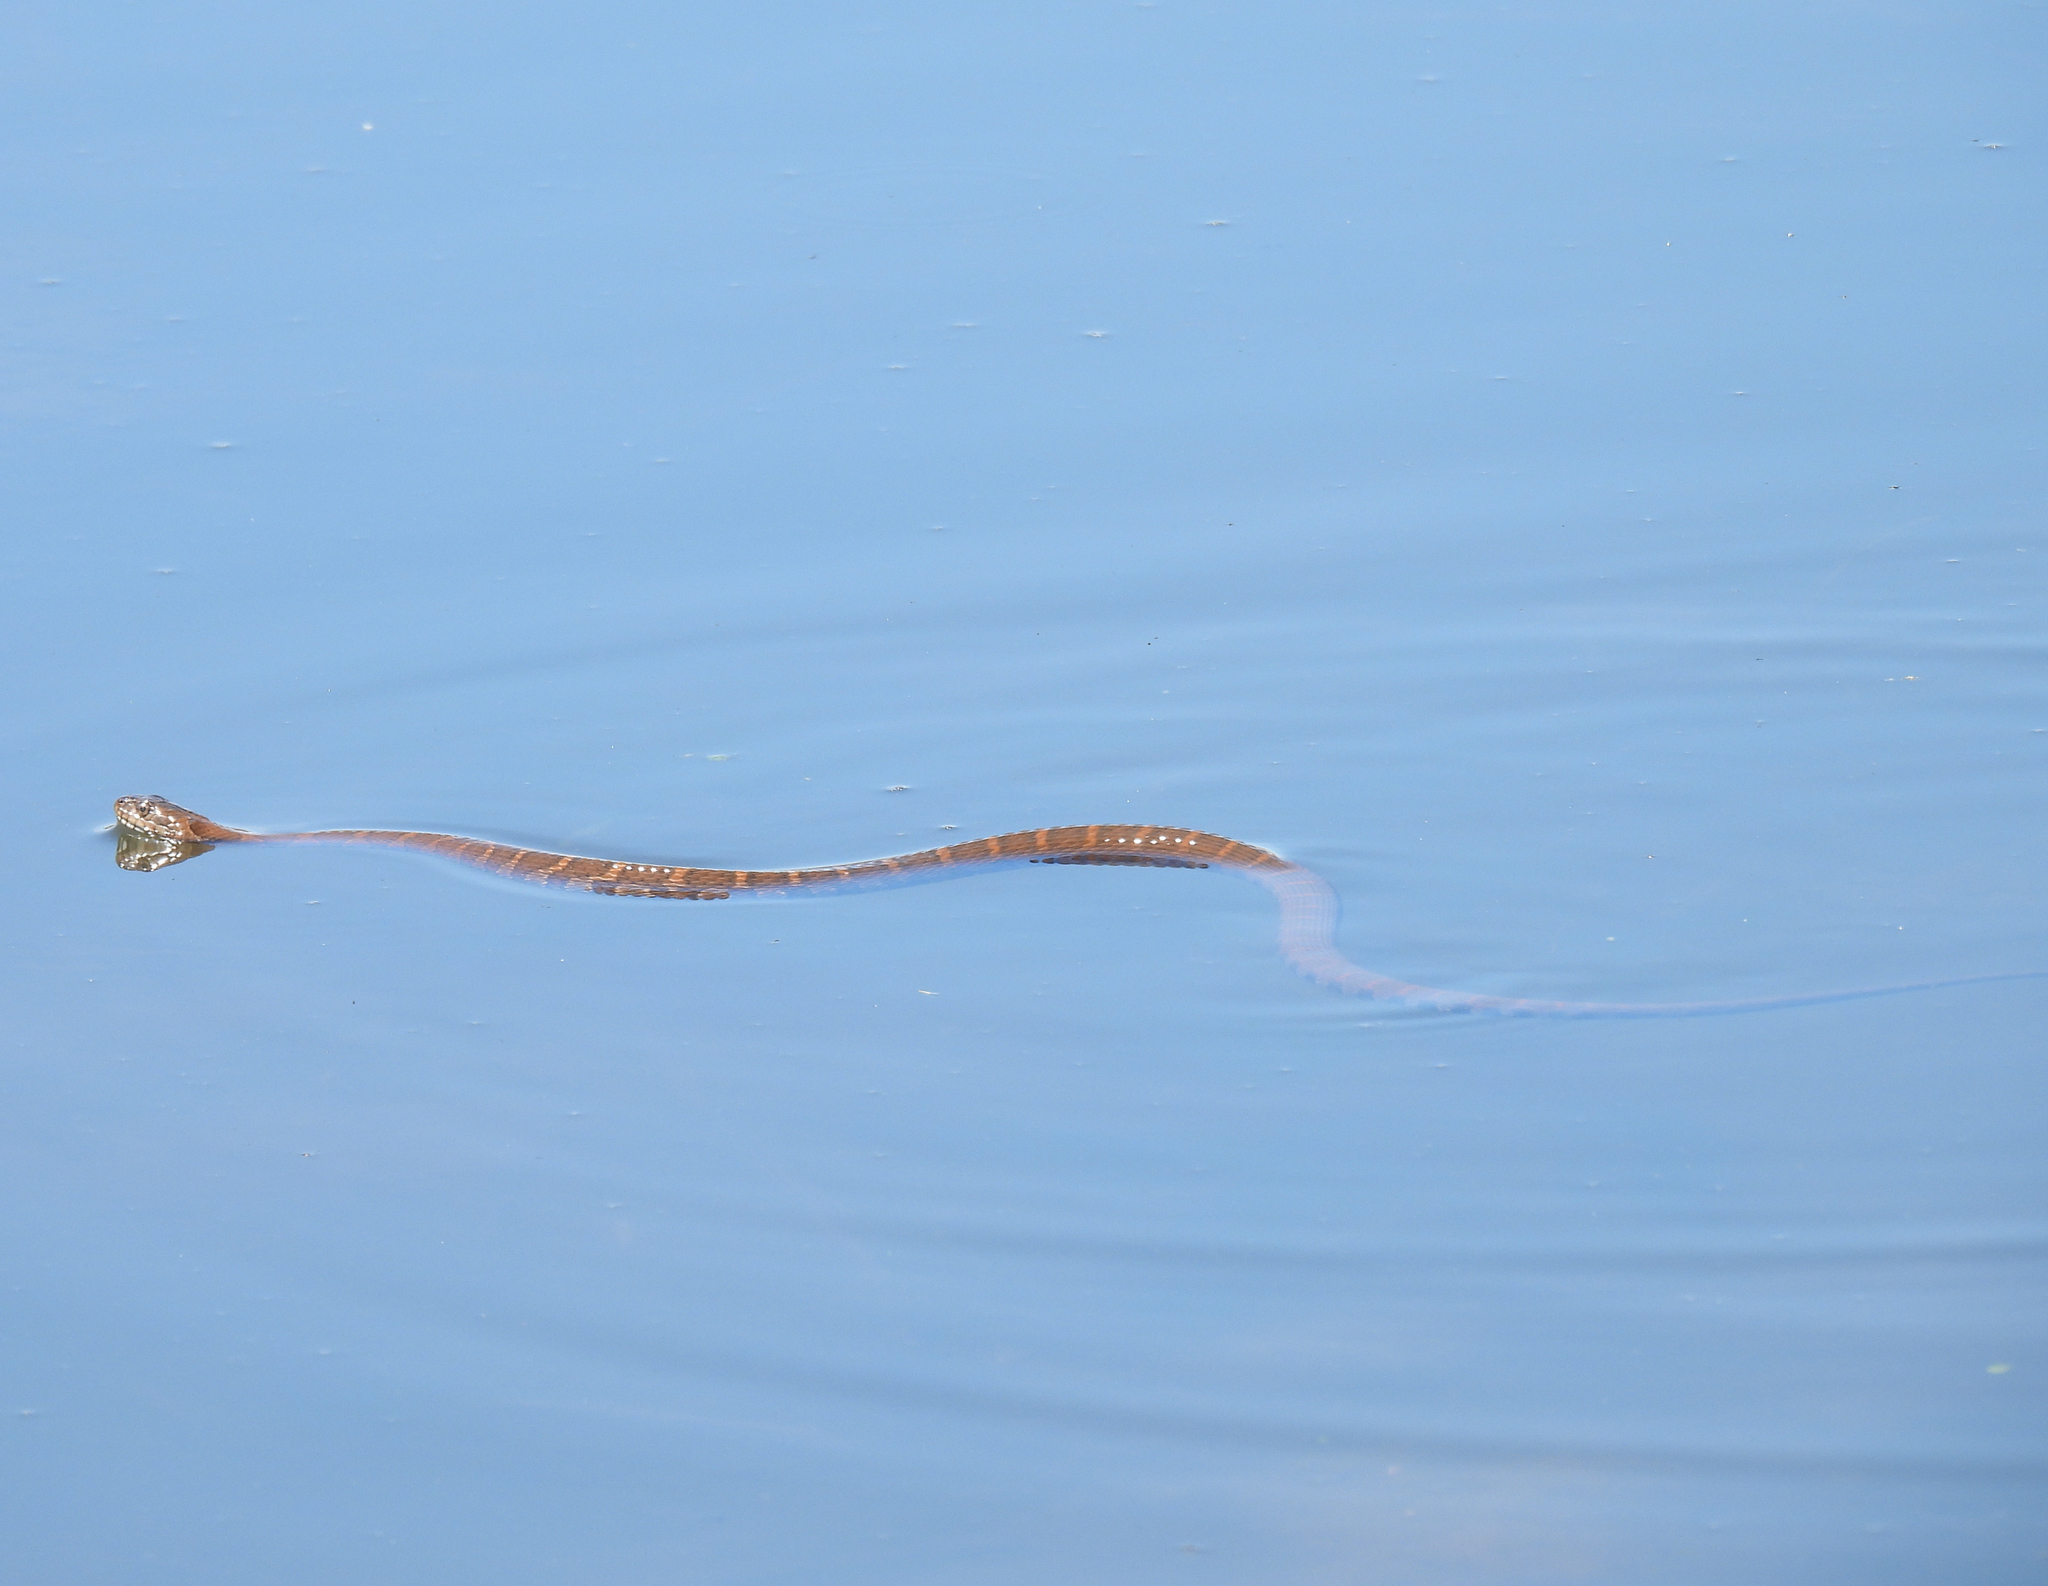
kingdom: Animalia
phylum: Chordata
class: Squamata
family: Colubridae
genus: Nerodia
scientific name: Nerodia sipedon
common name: Northern water snake
